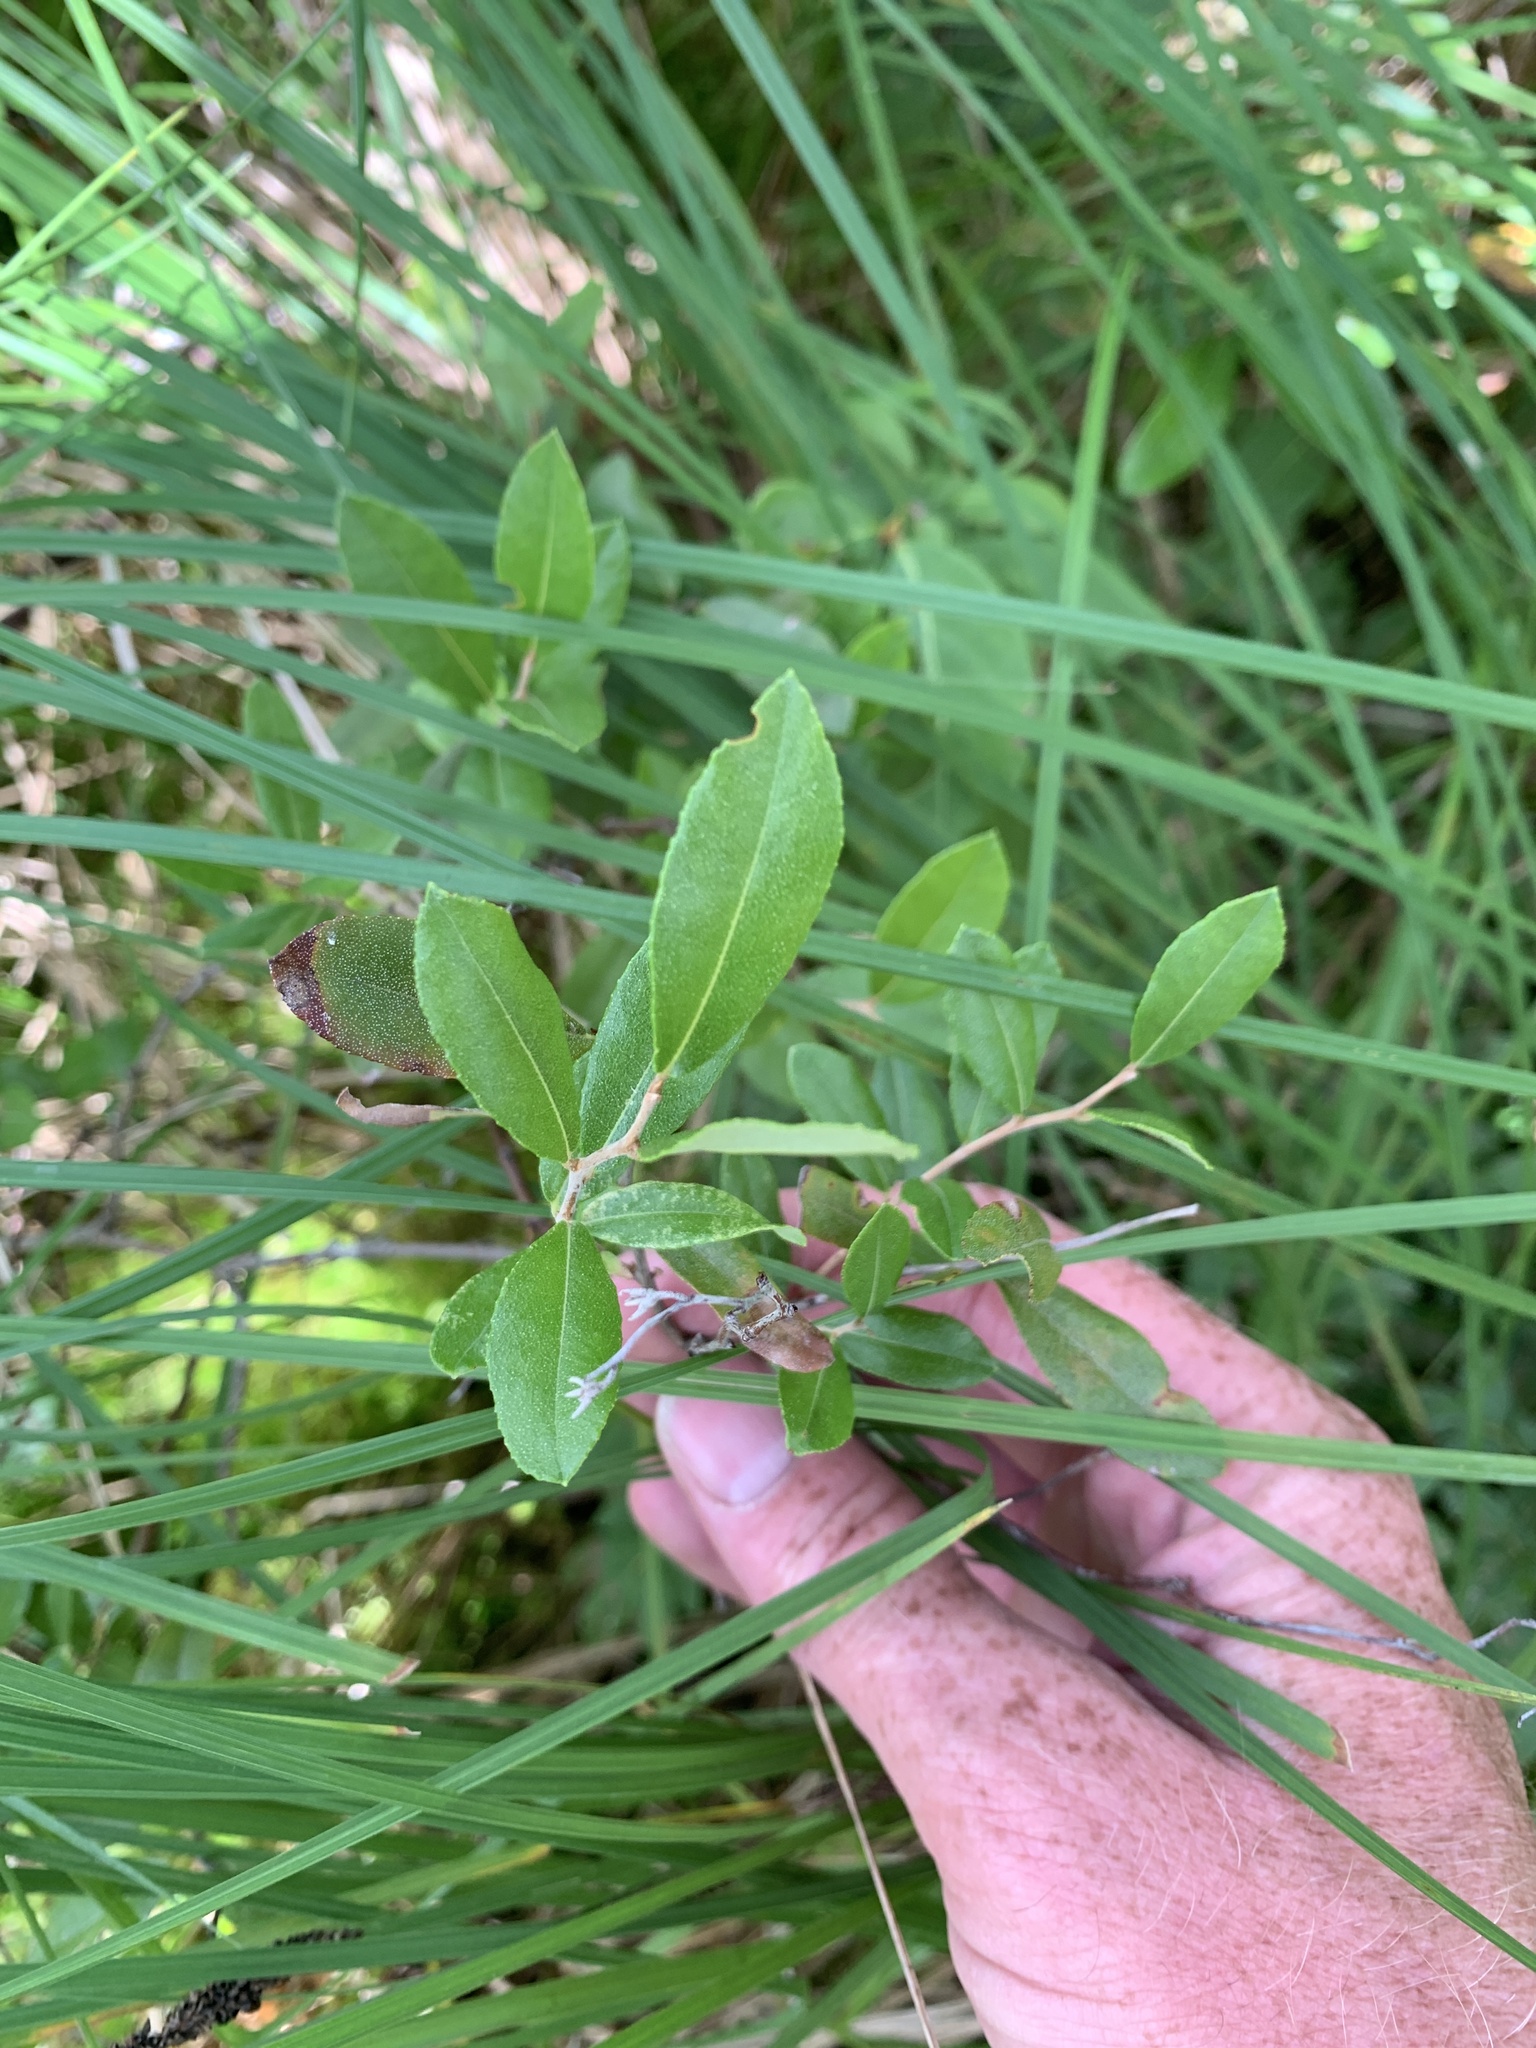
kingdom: Plantae
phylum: Tracheophyta
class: Magnoliopsida
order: Ericales
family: Ericaceae
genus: Chamaedaphne
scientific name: Chamaedaphne calyculata
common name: Leatherleaf
